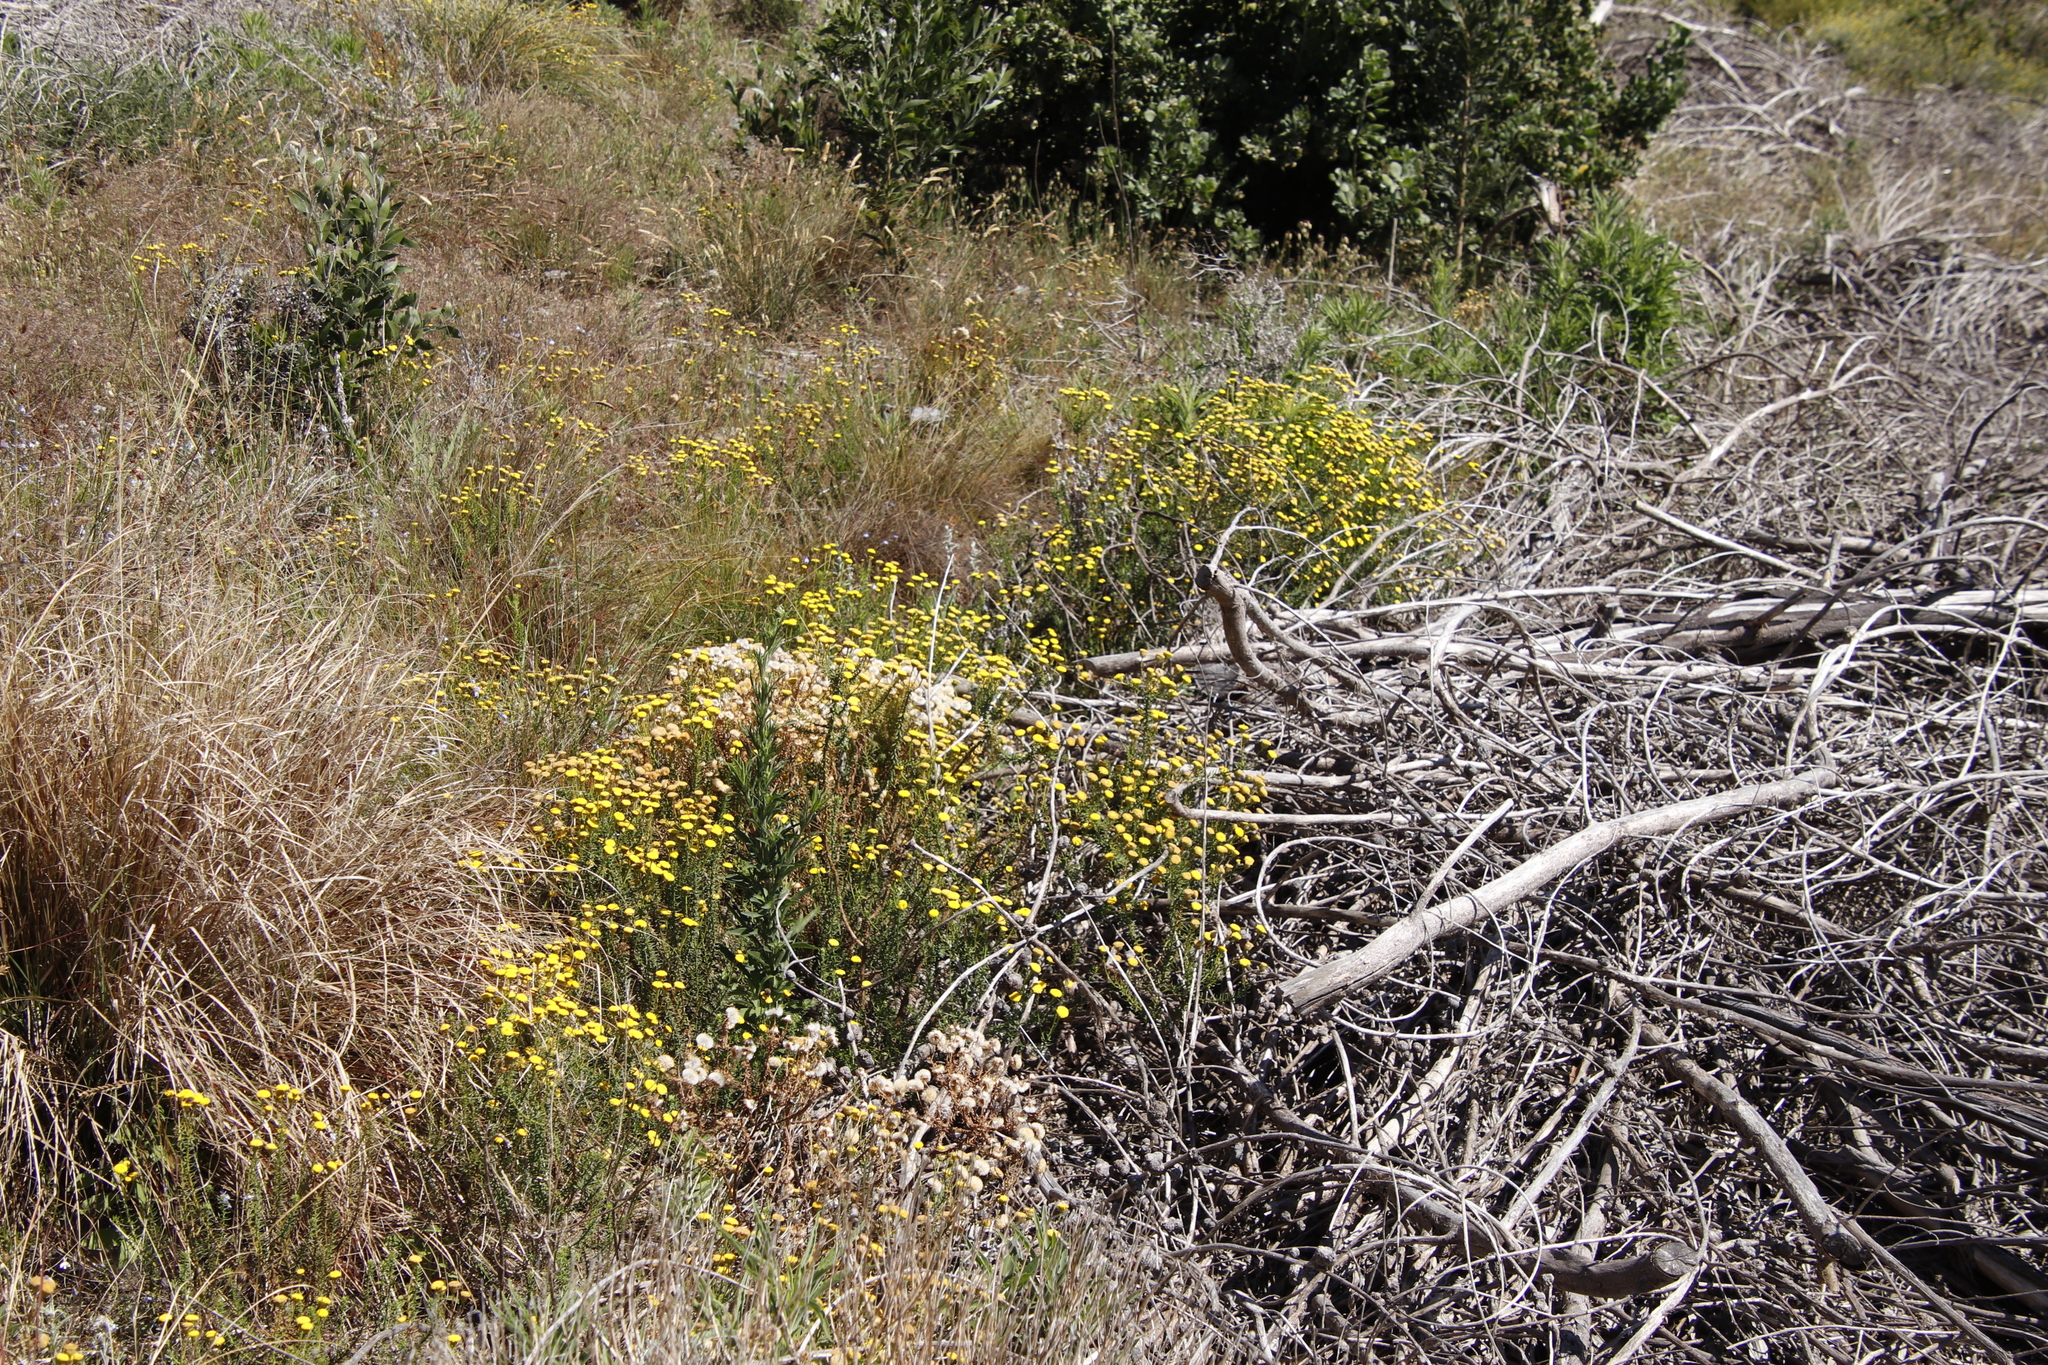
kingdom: Plantae
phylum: Tracheophyta
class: Magnoliopsida
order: Asterales
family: Asteraceae
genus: Chrysocoma
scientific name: Chrysocoma cernua
